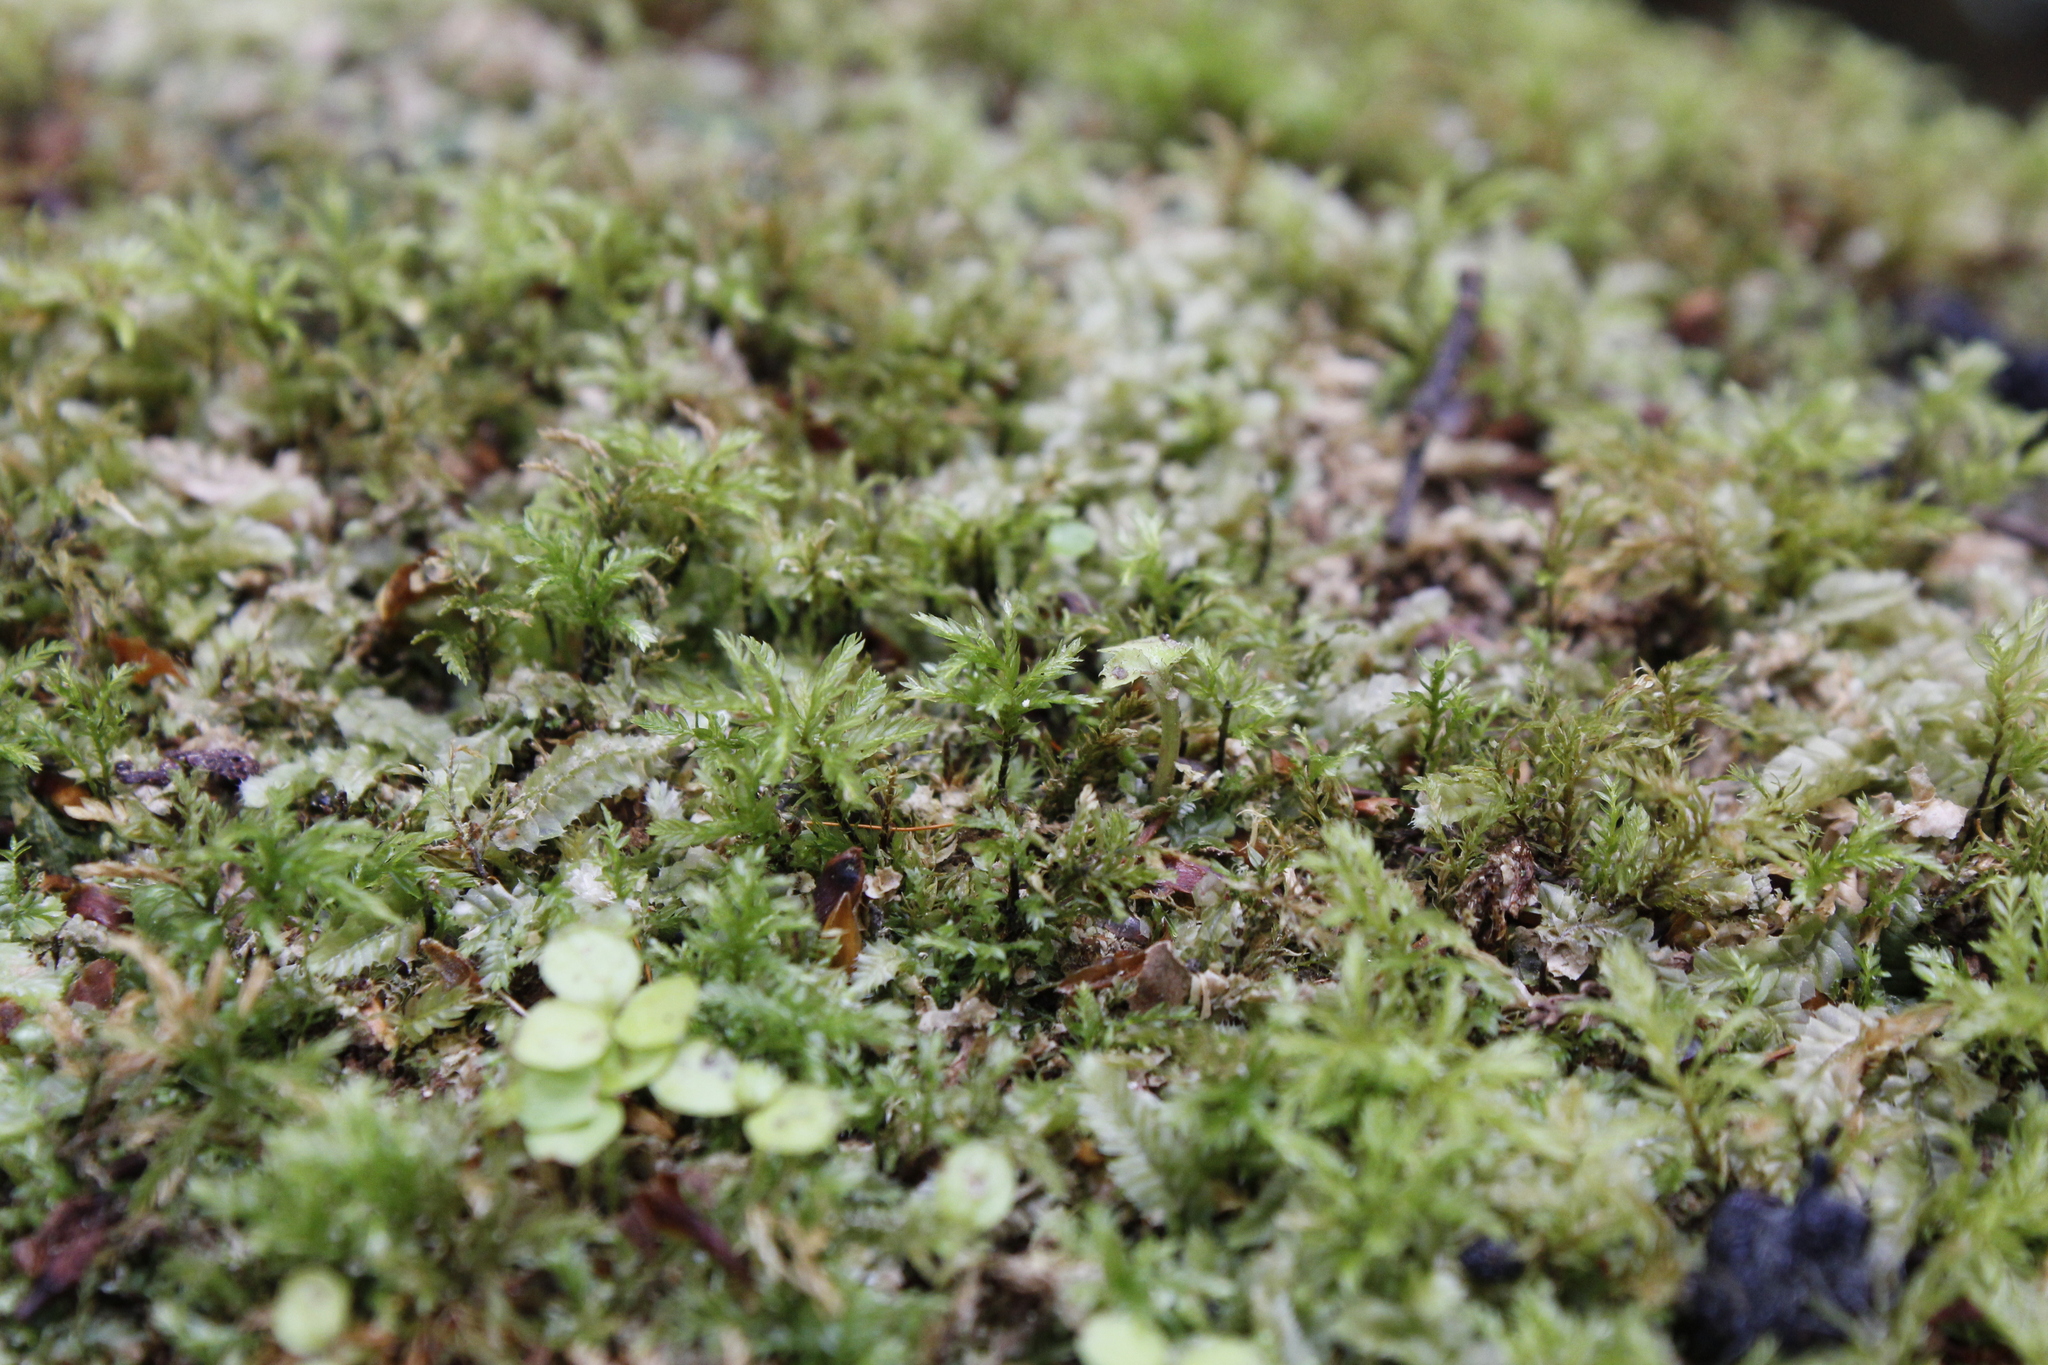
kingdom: Plantae
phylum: Bryophyta
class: Bryopsida
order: Aulacomniales
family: Aulacomniaceae
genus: Hymenodontopsis
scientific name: Hymenodontopsis bifaria
